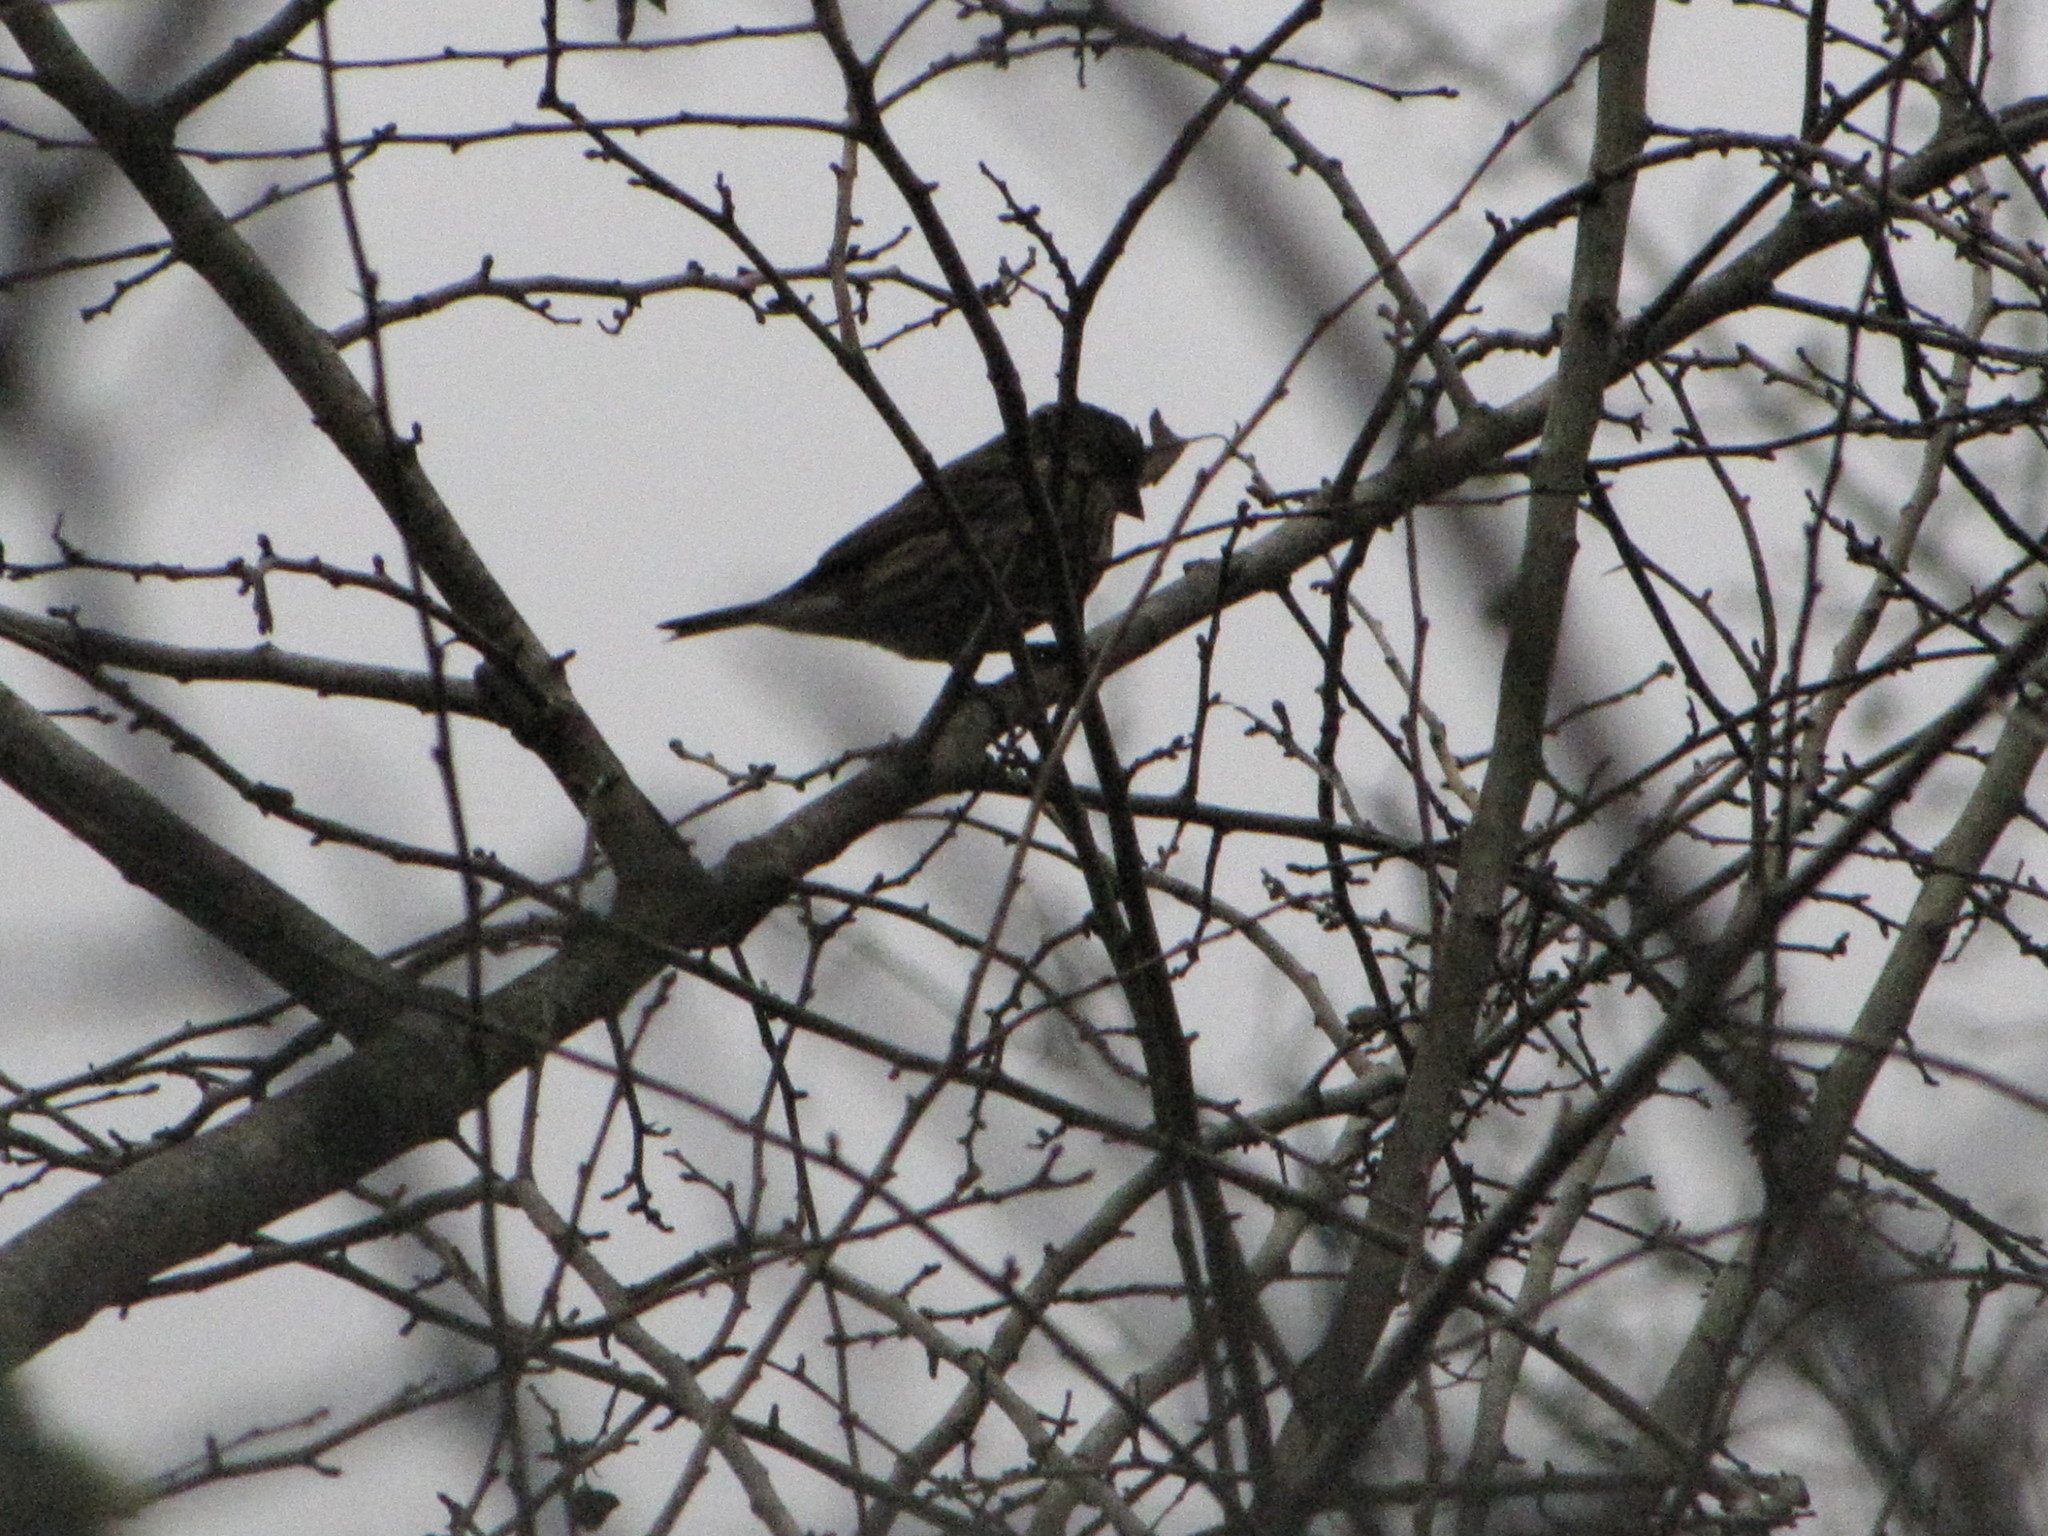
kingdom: Animalia
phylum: Chordata
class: Aves
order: Passeriformes
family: Fringillidae
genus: Spinus
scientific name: Spinus pinus
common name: Pine siskin
